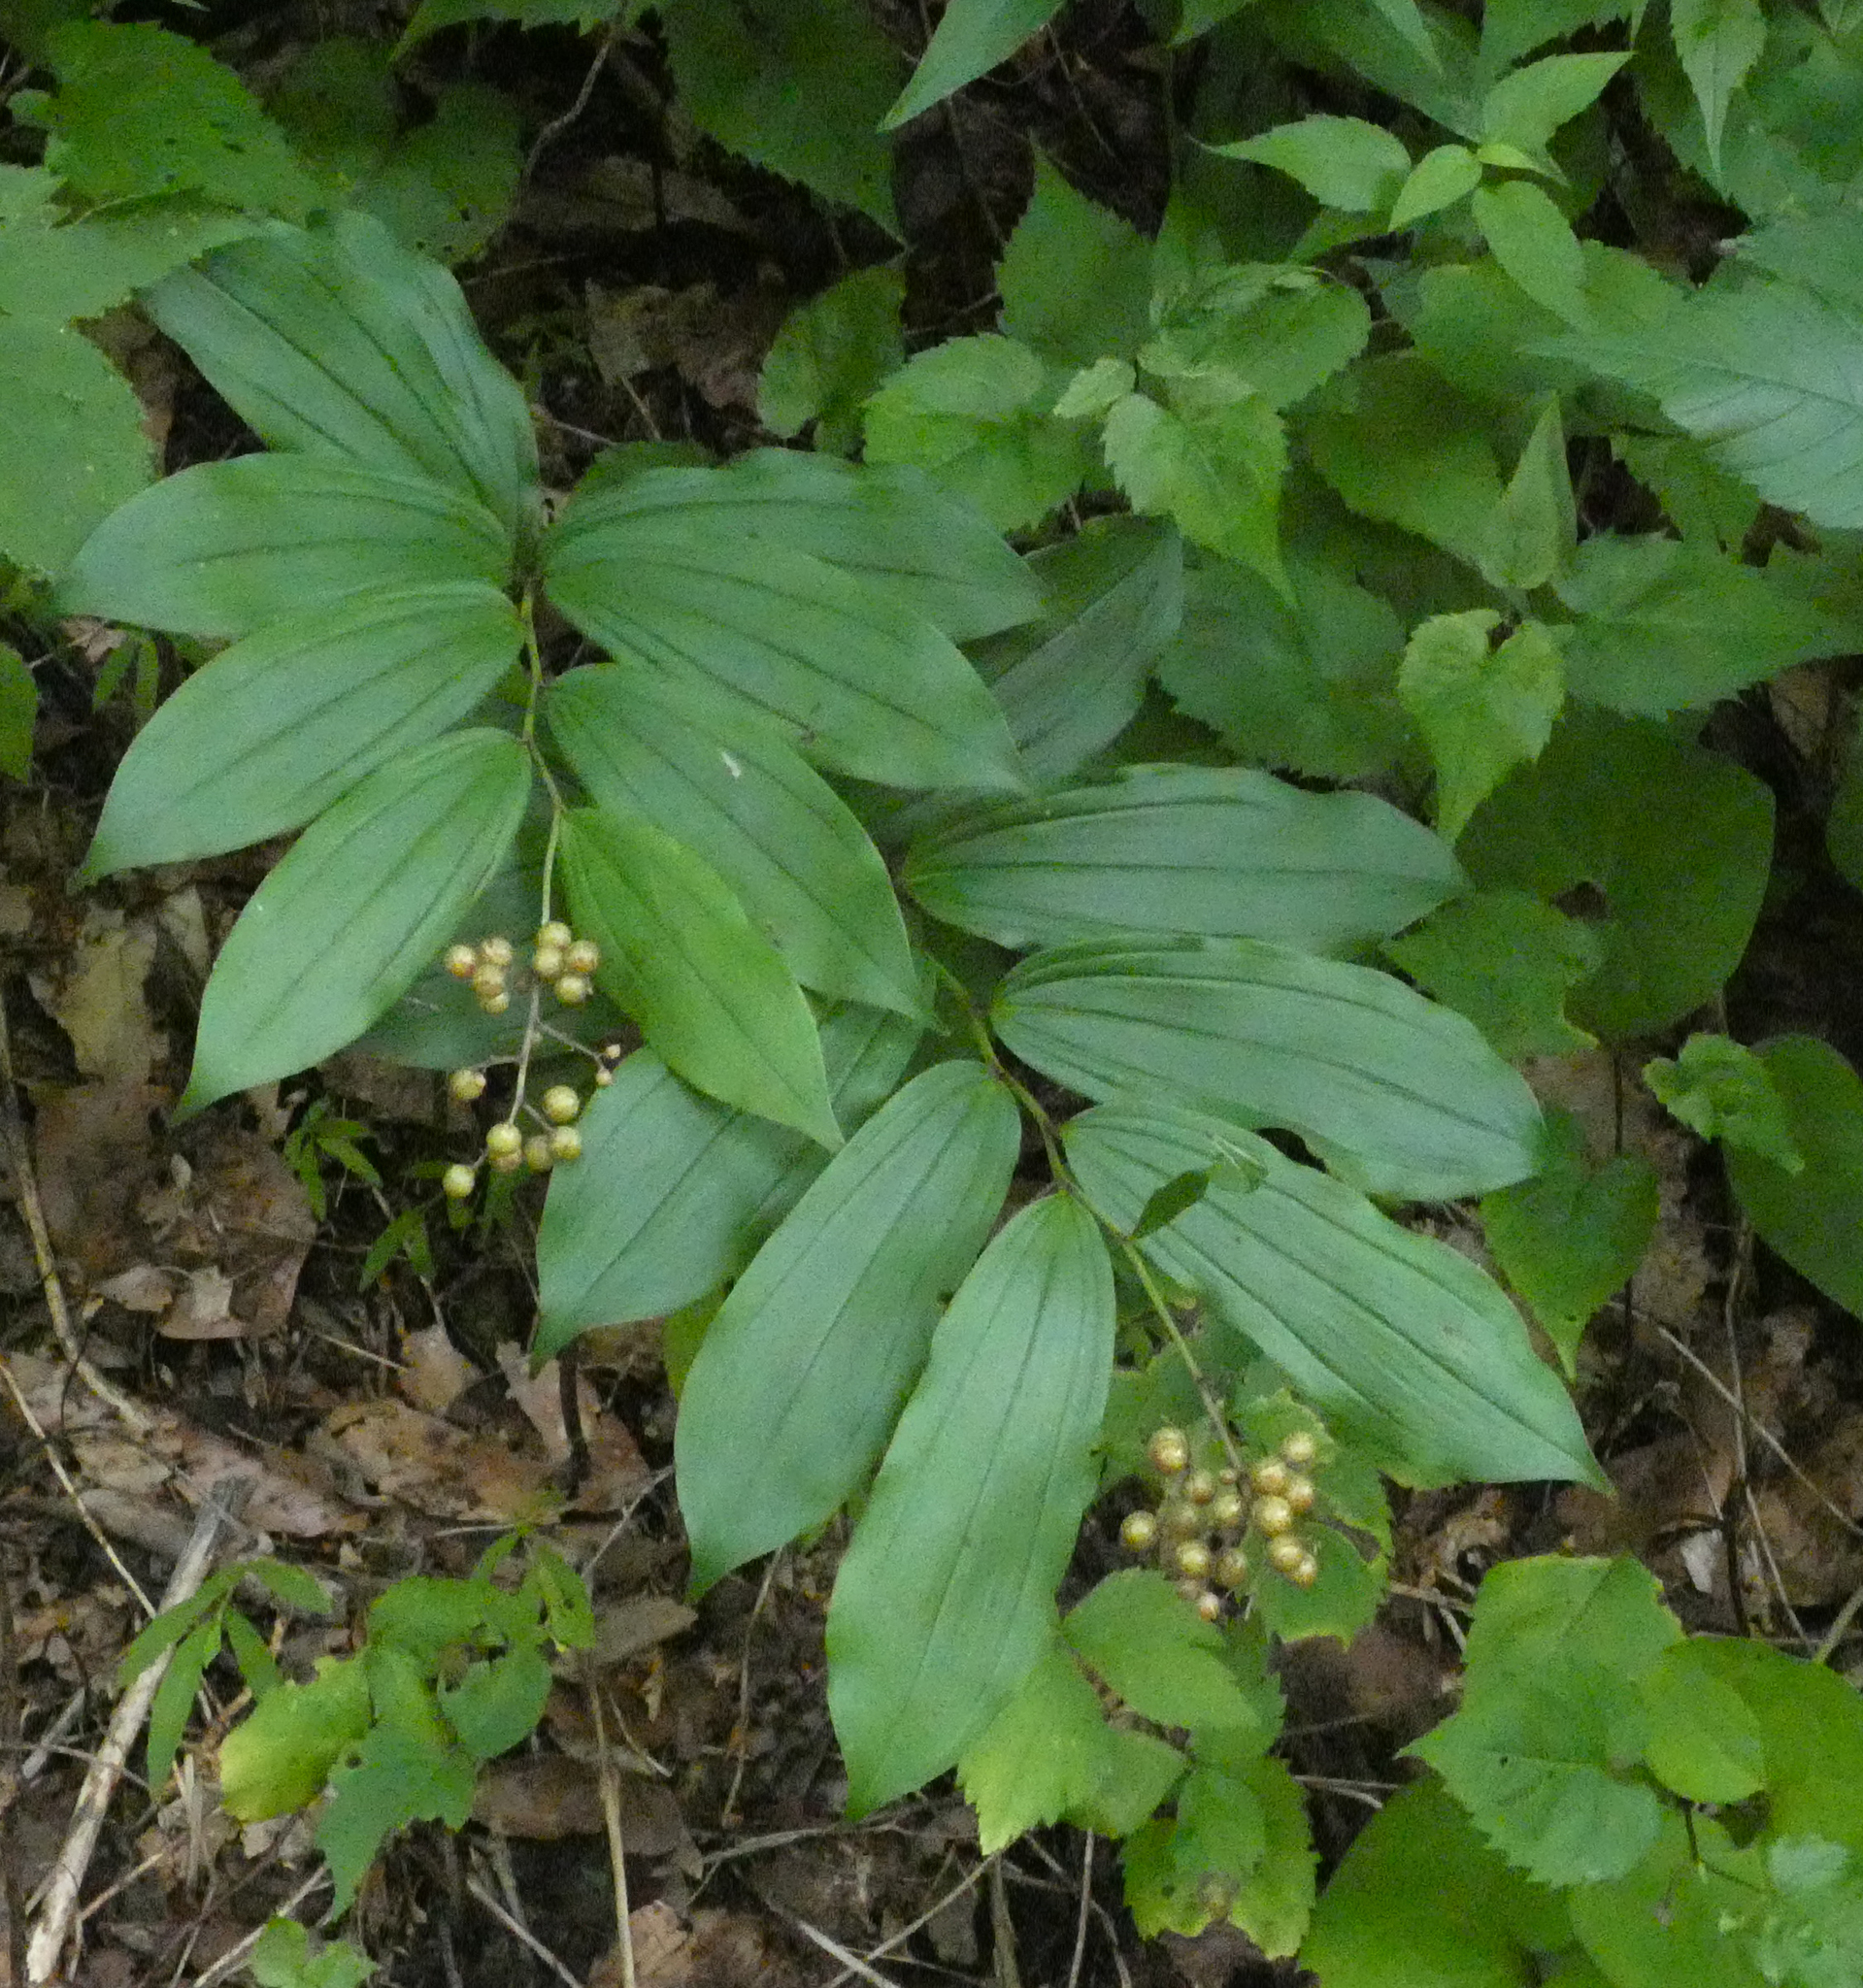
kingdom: Plantae
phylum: Tracheophyta
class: Liliopsida
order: Asparagales
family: Asparagaceae
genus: Maianthemum
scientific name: Maianthemum racemosum
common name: False spikenard
